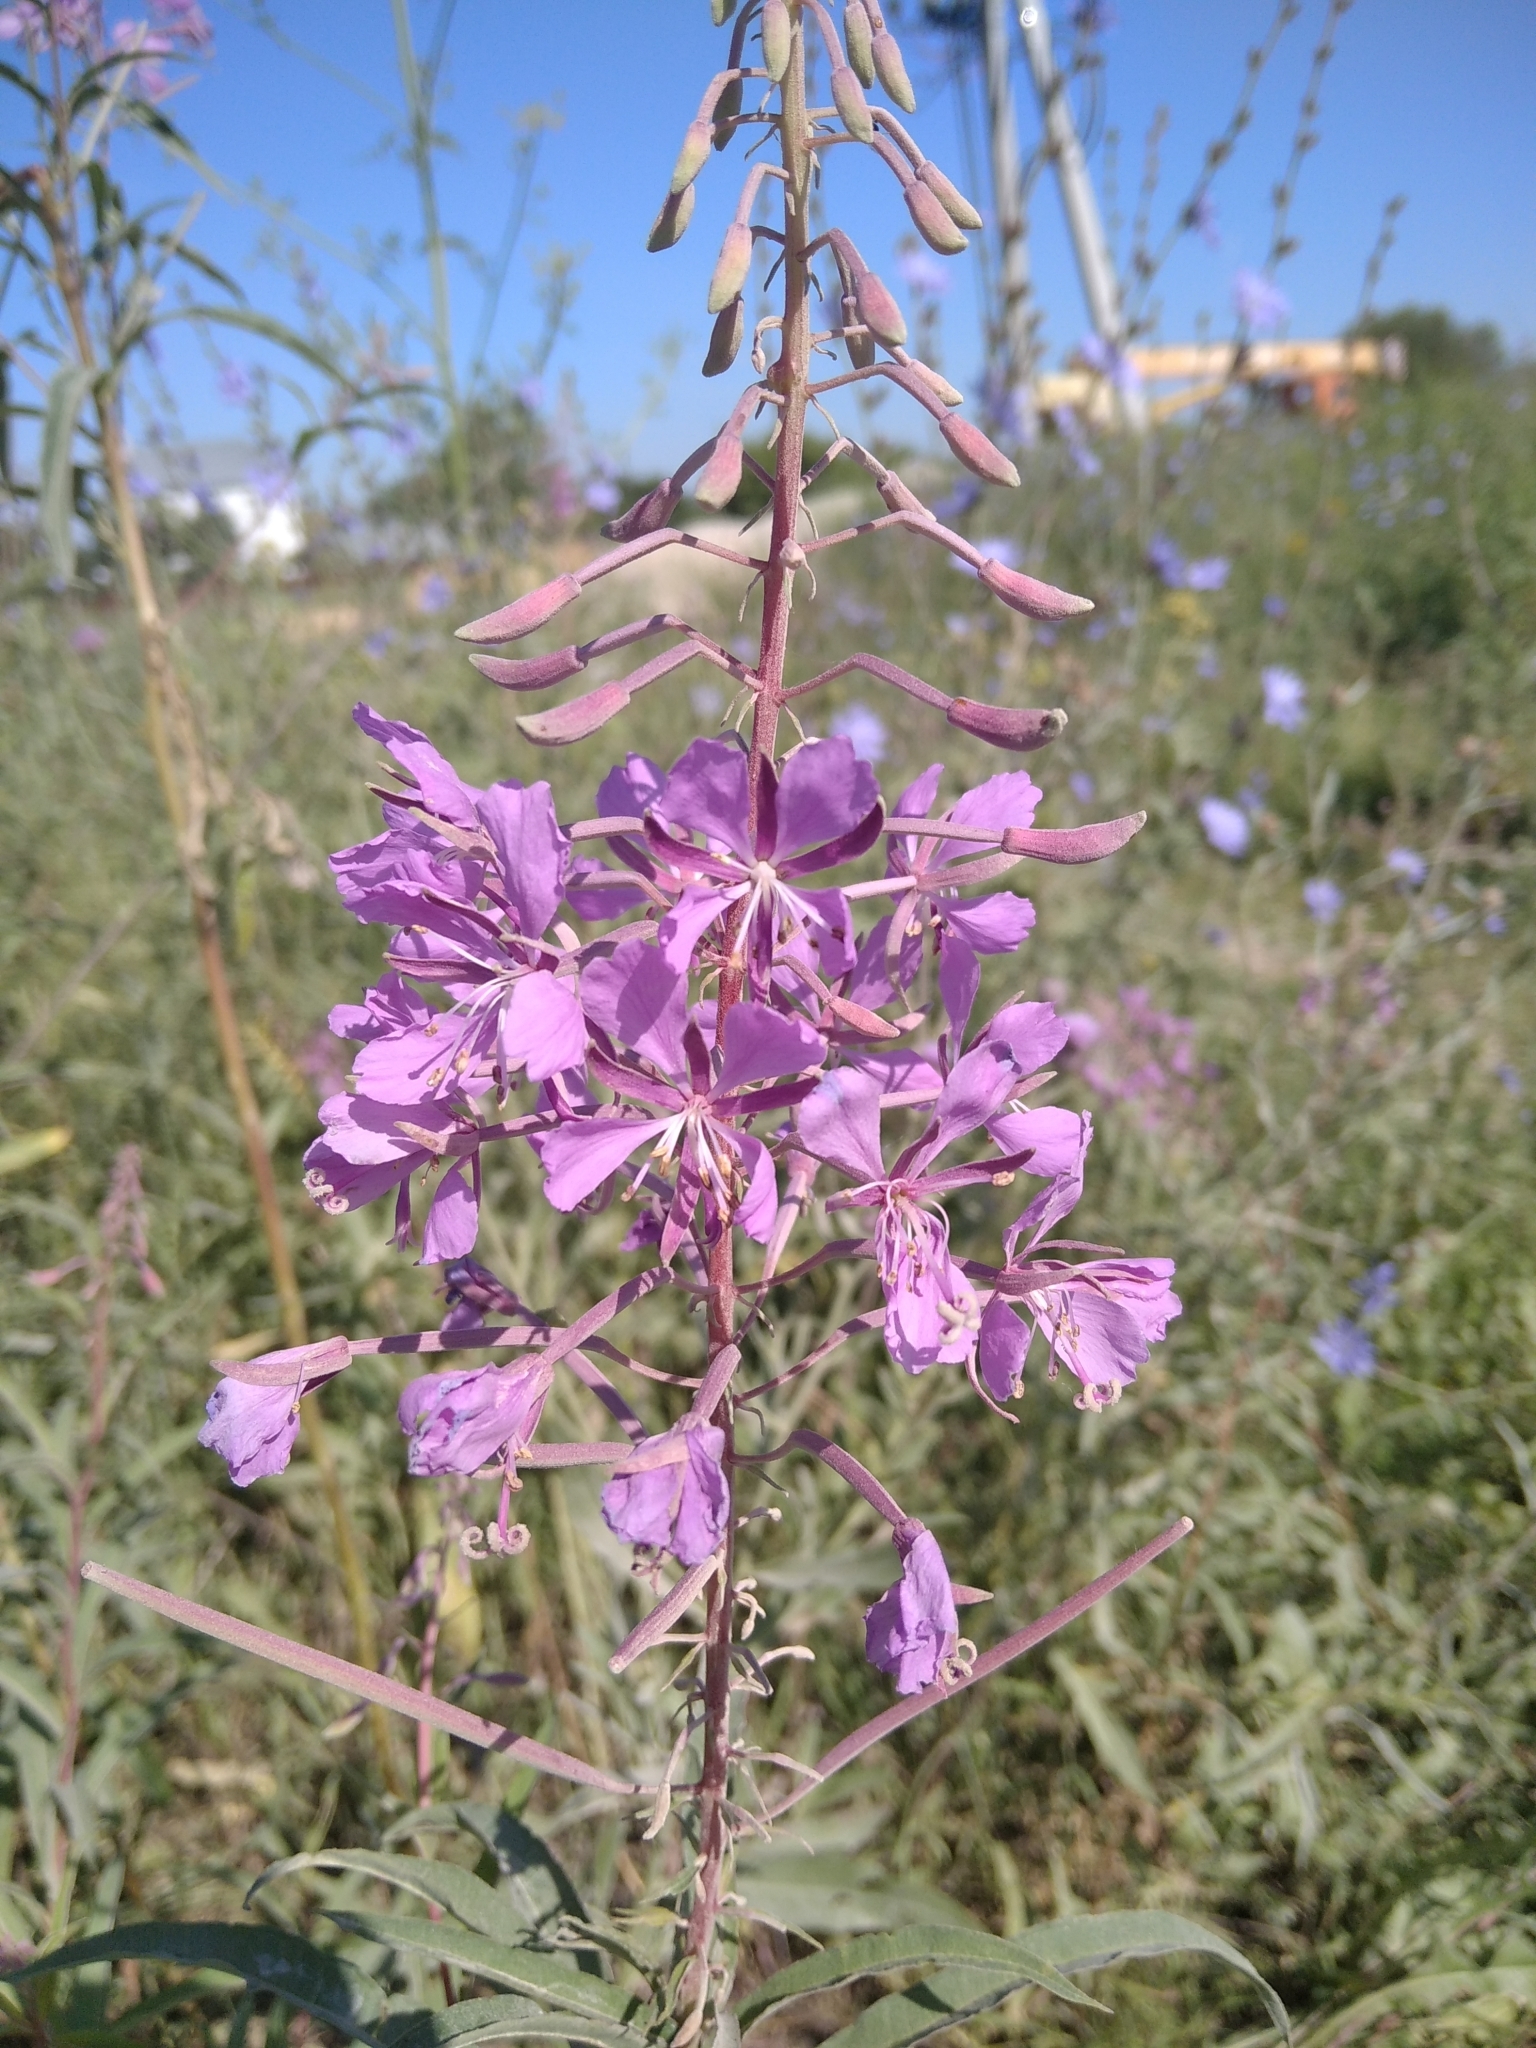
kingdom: Plantae
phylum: Tracheophyta
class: Magnoliopsida
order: Myrtales
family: Onagraceae
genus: Chamaenerion
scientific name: Chamaenerion angustifolium
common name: Fireweed
